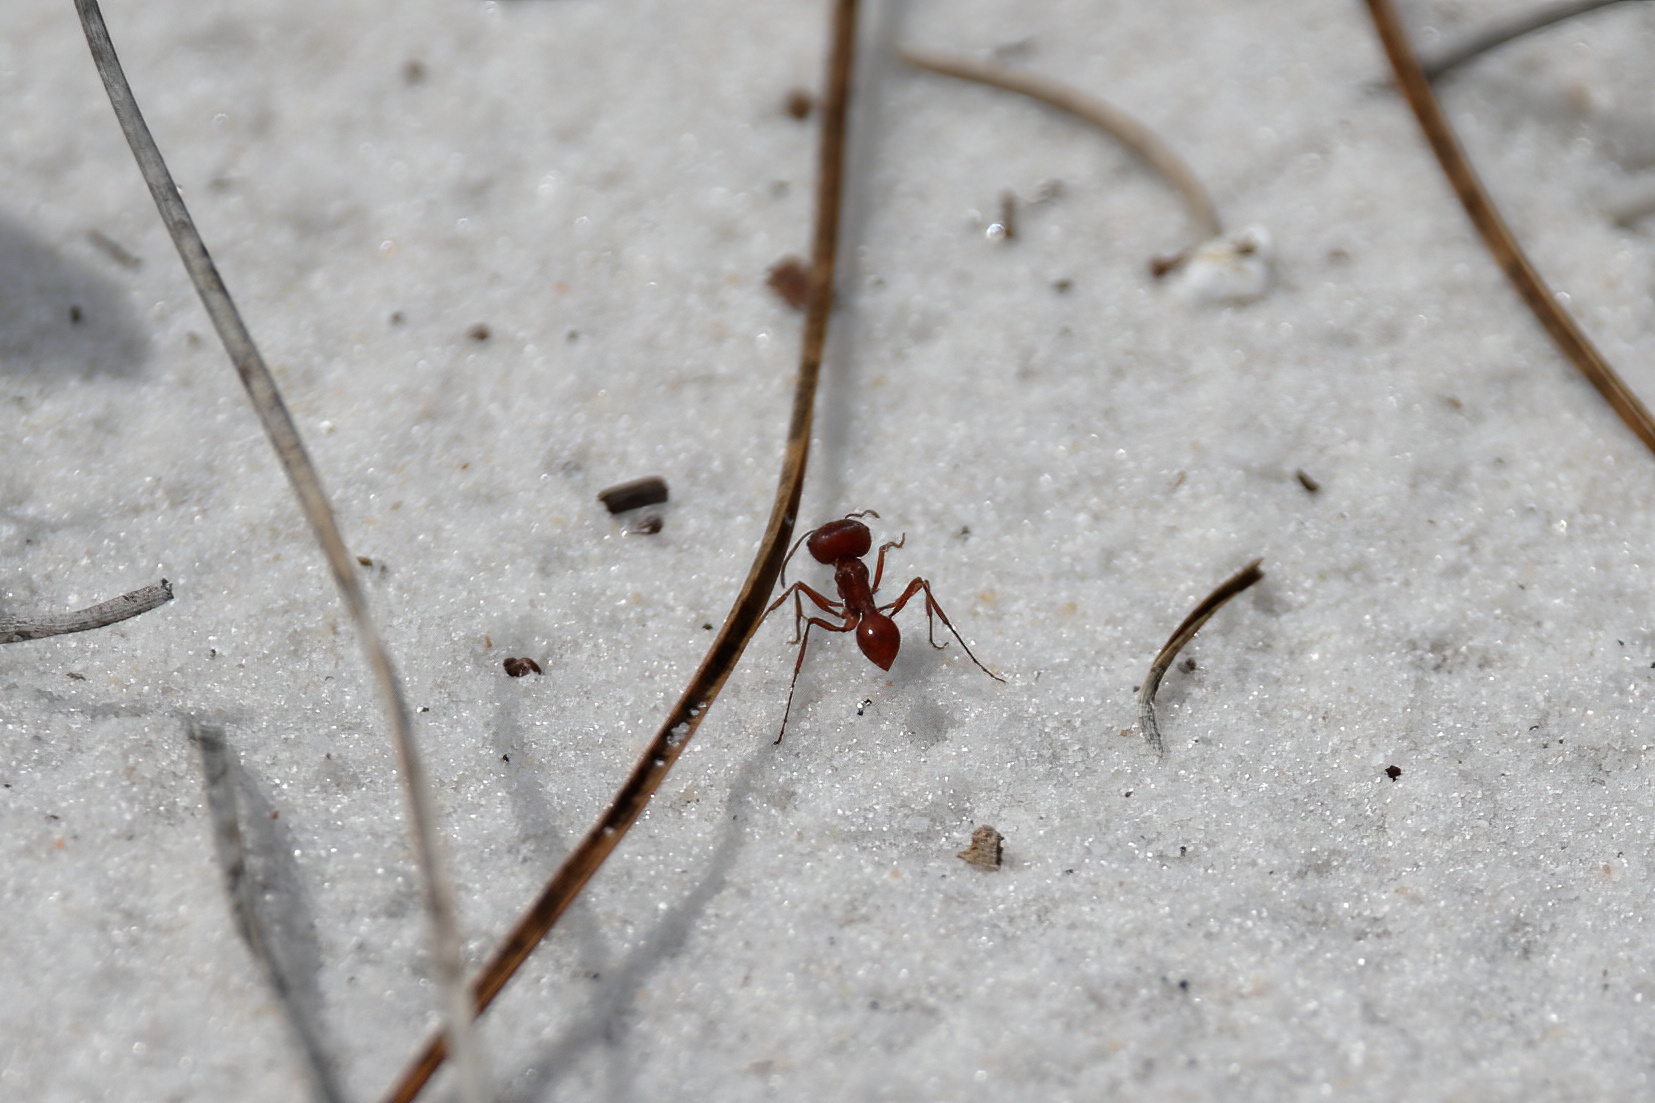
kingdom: Animalia
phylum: Arthropoda
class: Insecta
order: Hymenoptera
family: Formicidae
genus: Pogonomyrmex
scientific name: Pogonomyrmex badius
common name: Florida harvester ant
